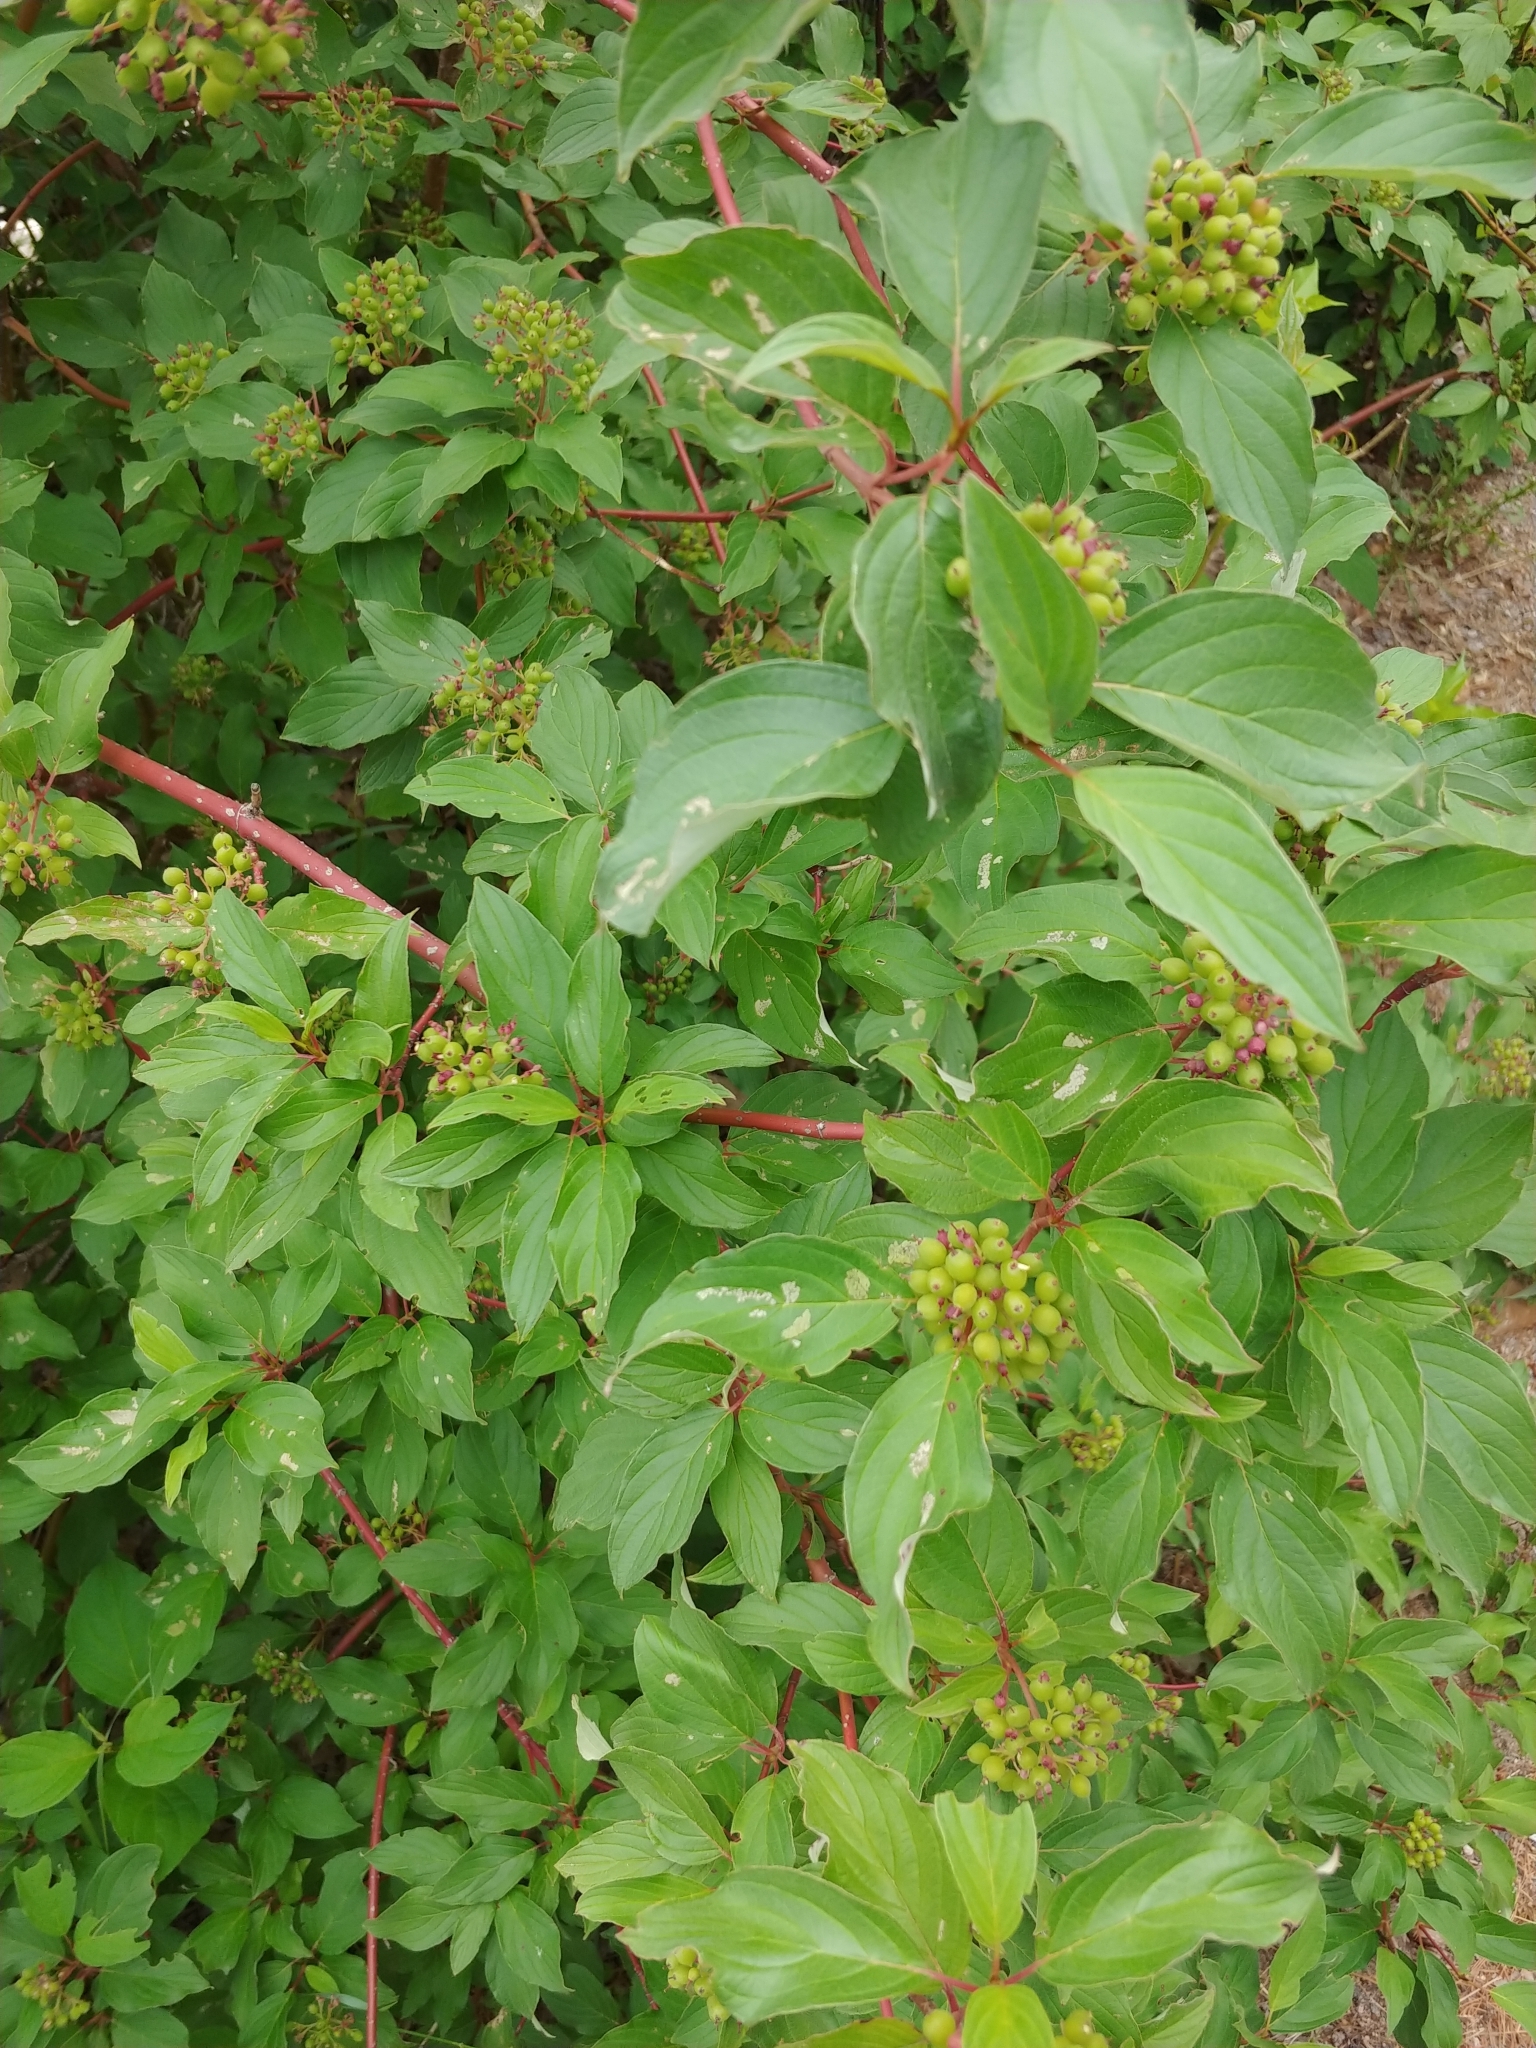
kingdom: Plantae
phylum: Tracheophyta
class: Magnoliopsida
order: Cornales
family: Cornaceae
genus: Cornus
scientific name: Cornus sericea
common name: Red-osier dogwood
